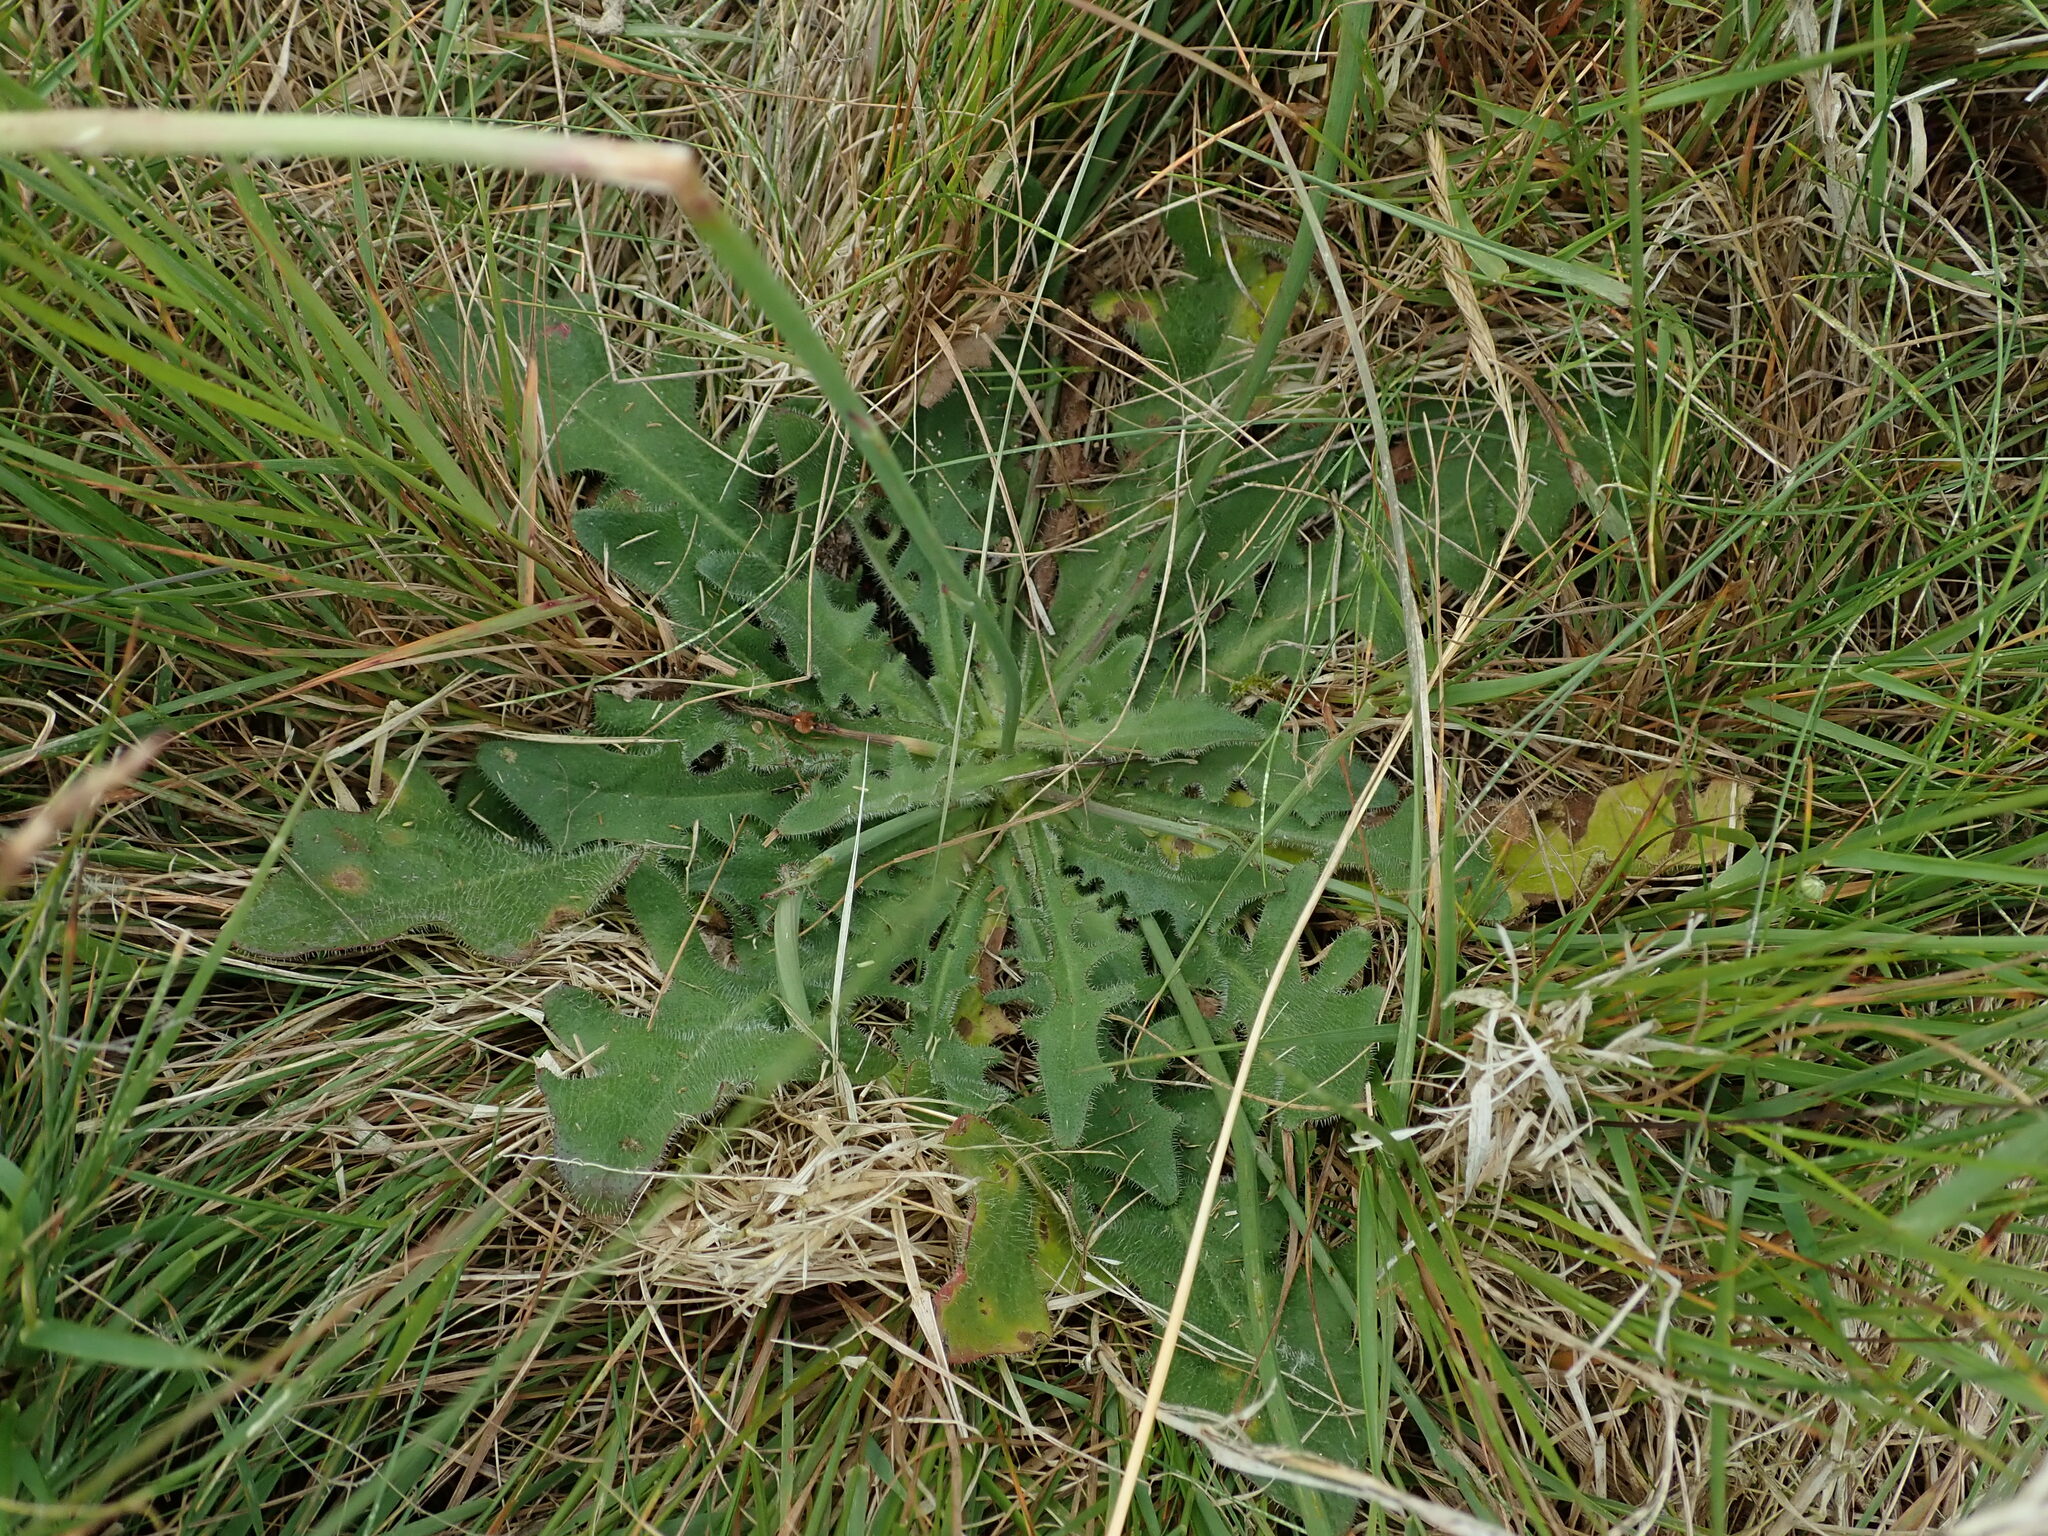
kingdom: Plantae
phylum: Tracheophyta
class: Magnoliopsida
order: Asterales
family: Asteraceae
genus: Hypochaeris
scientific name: Hypochaeris radicata
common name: Flatweed
